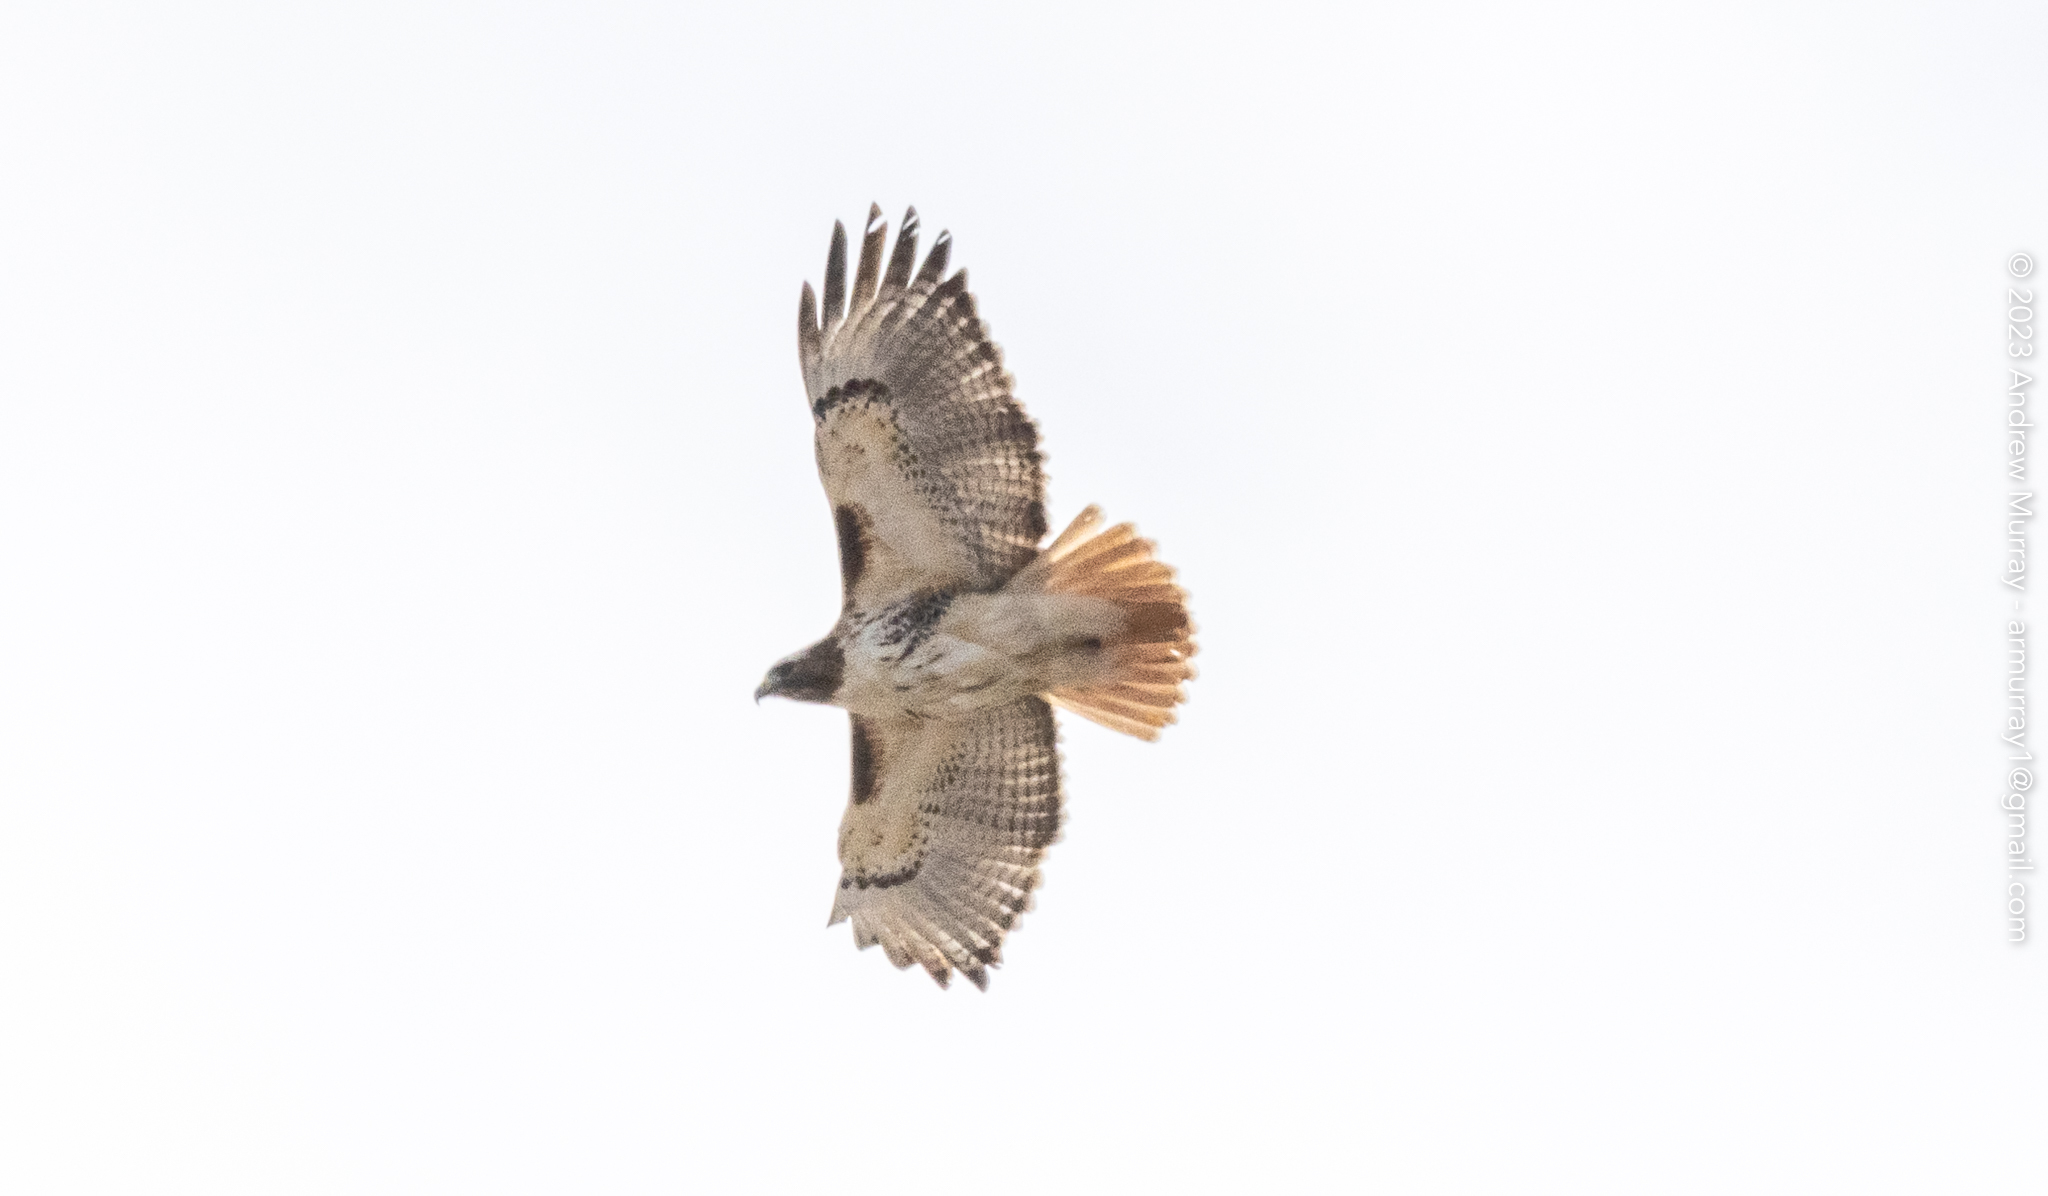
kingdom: Animalia
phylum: Chordata
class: Aves
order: Accipitriformes
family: Accipitridae
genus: Buteo
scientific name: Buteo jamaicensis
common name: Red-tailed hawk
